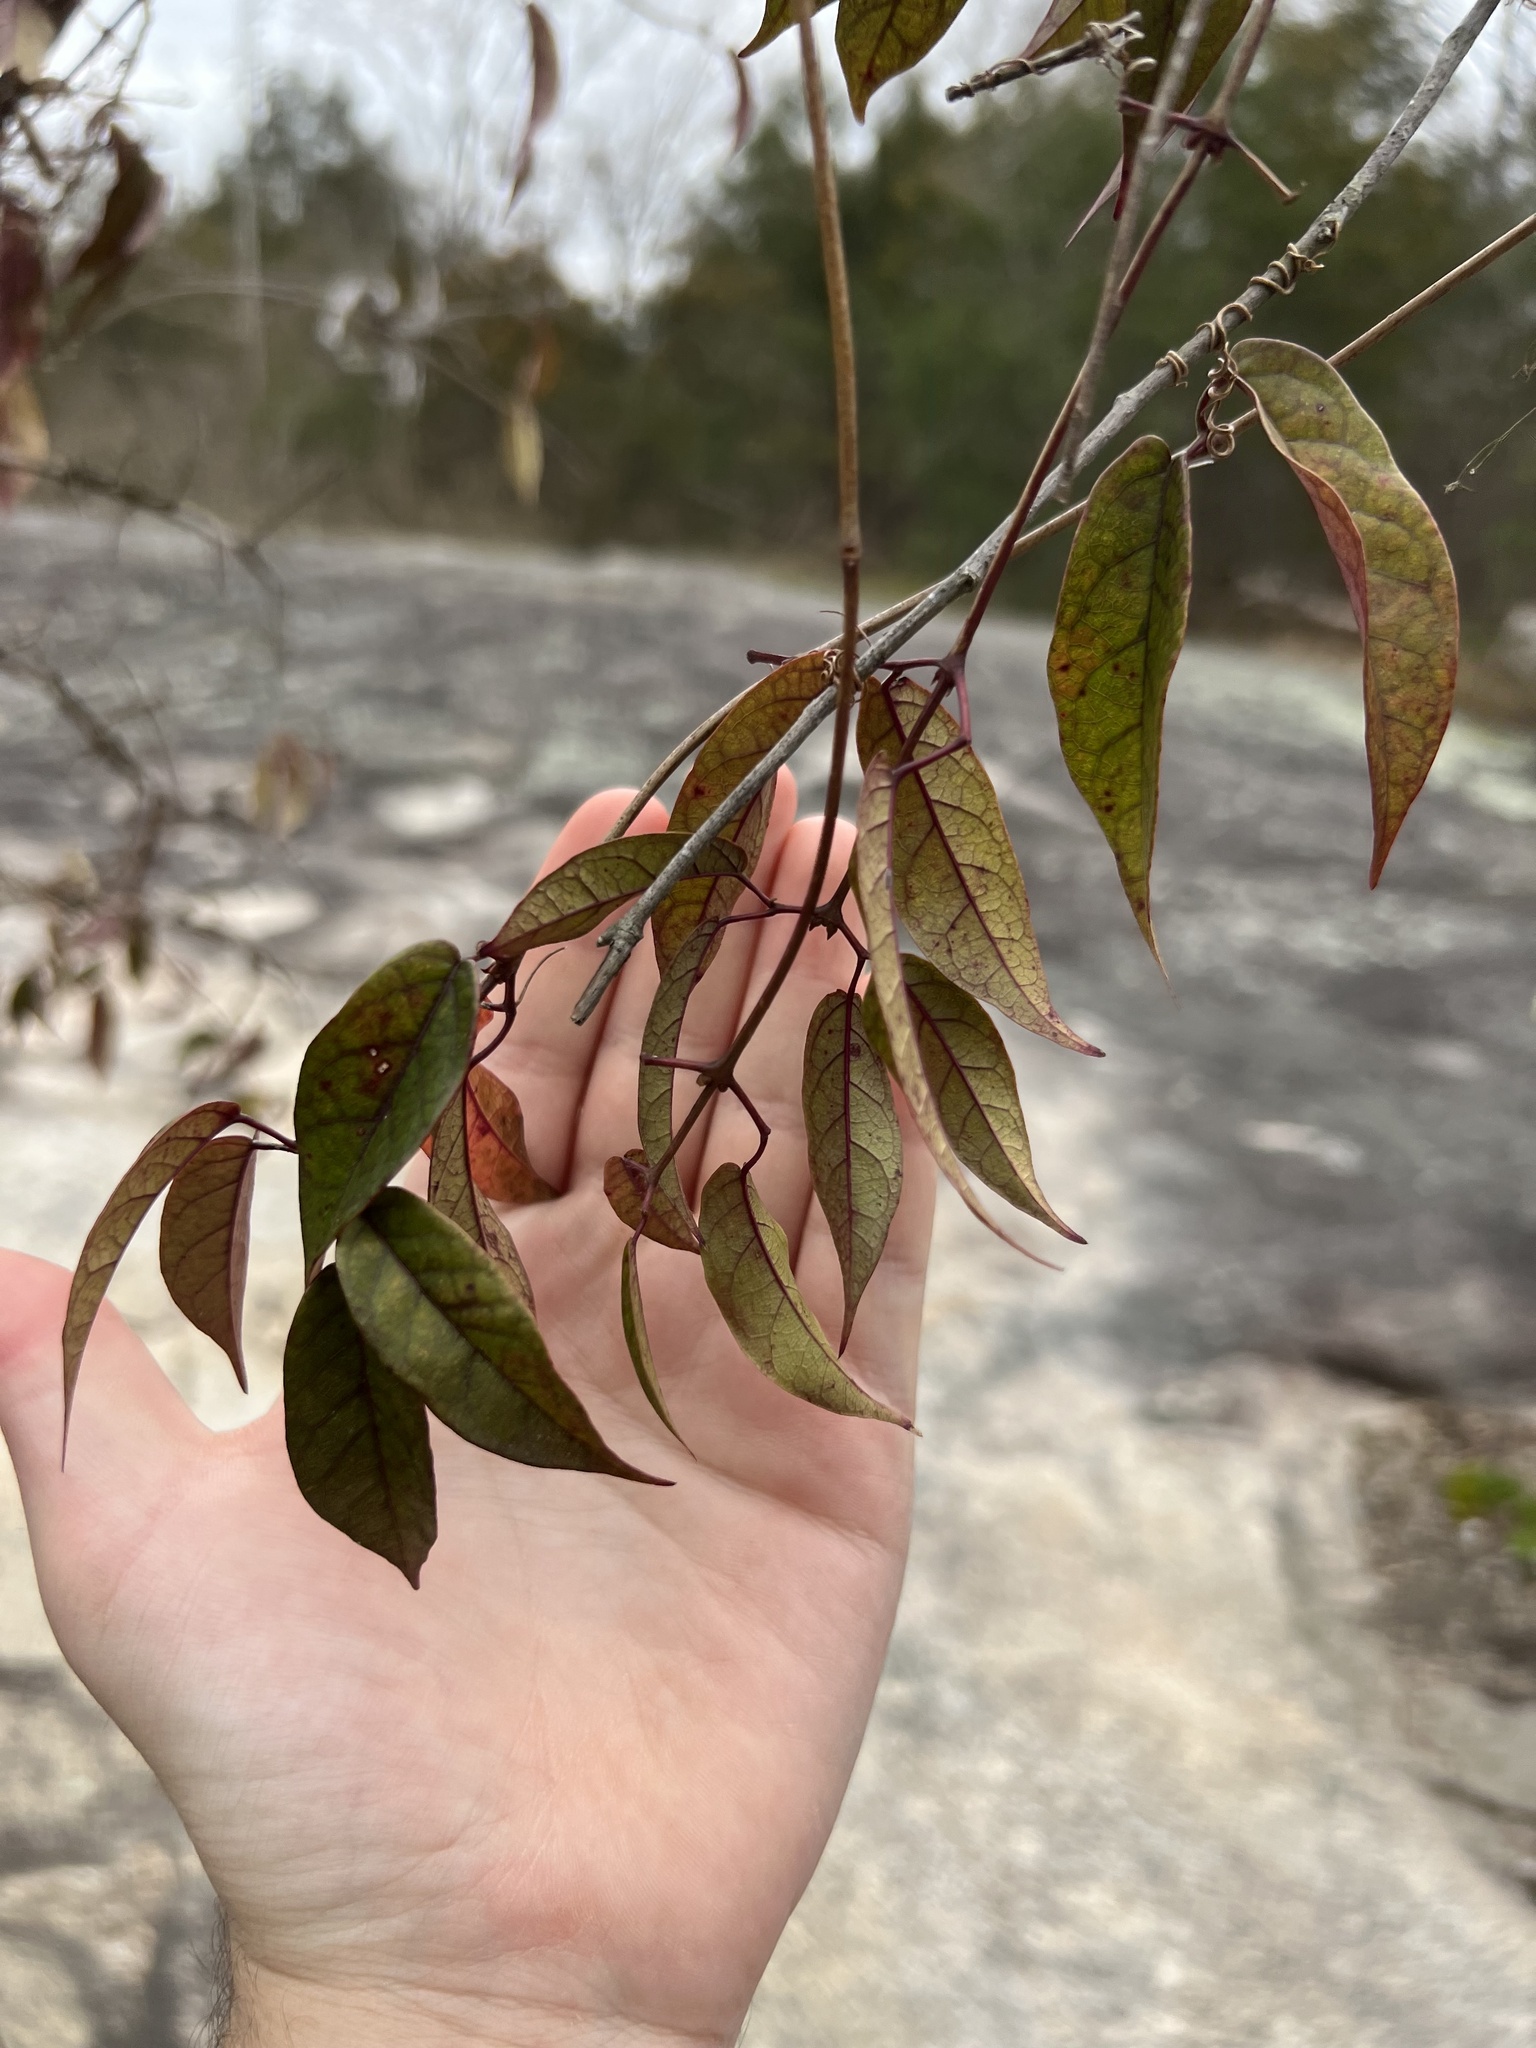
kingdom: Plantae
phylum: Tracheophyta
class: Magnoliopsida
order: Lamiales
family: Bignoniaceae
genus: Bignonia
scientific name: Bignonia capreolata
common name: Crossvine
